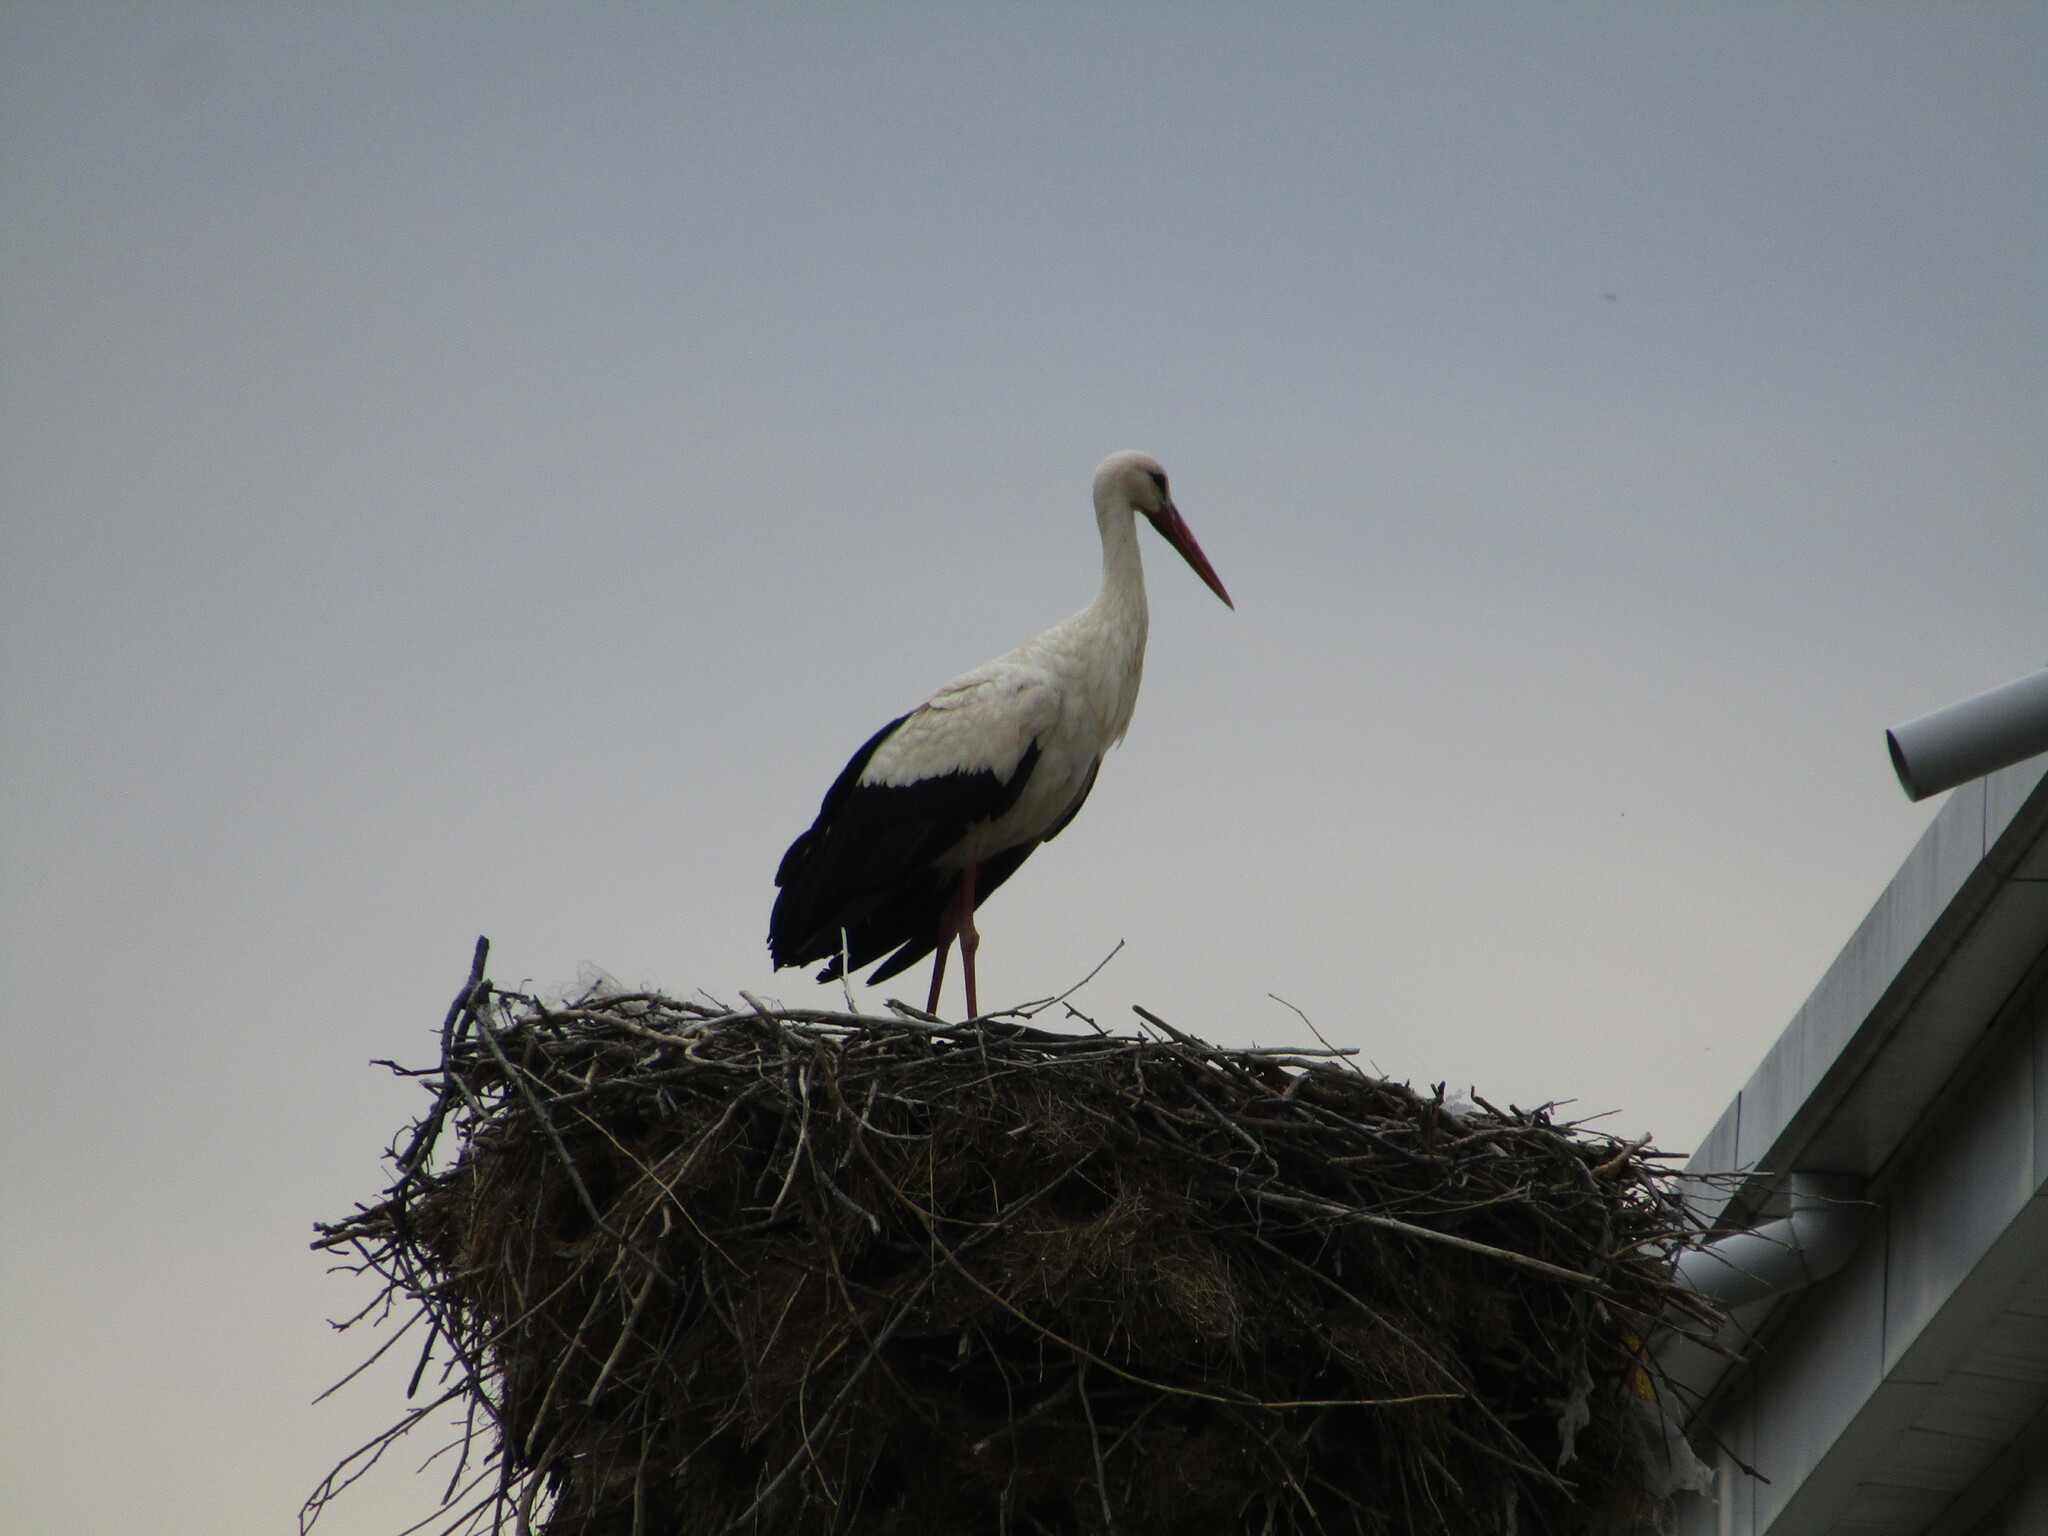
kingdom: Animalia
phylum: Chordata
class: Aves
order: Ciconiiformes
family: Ciconiidae
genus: Ciconia
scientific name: Ciconia ciconia
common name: White stork
